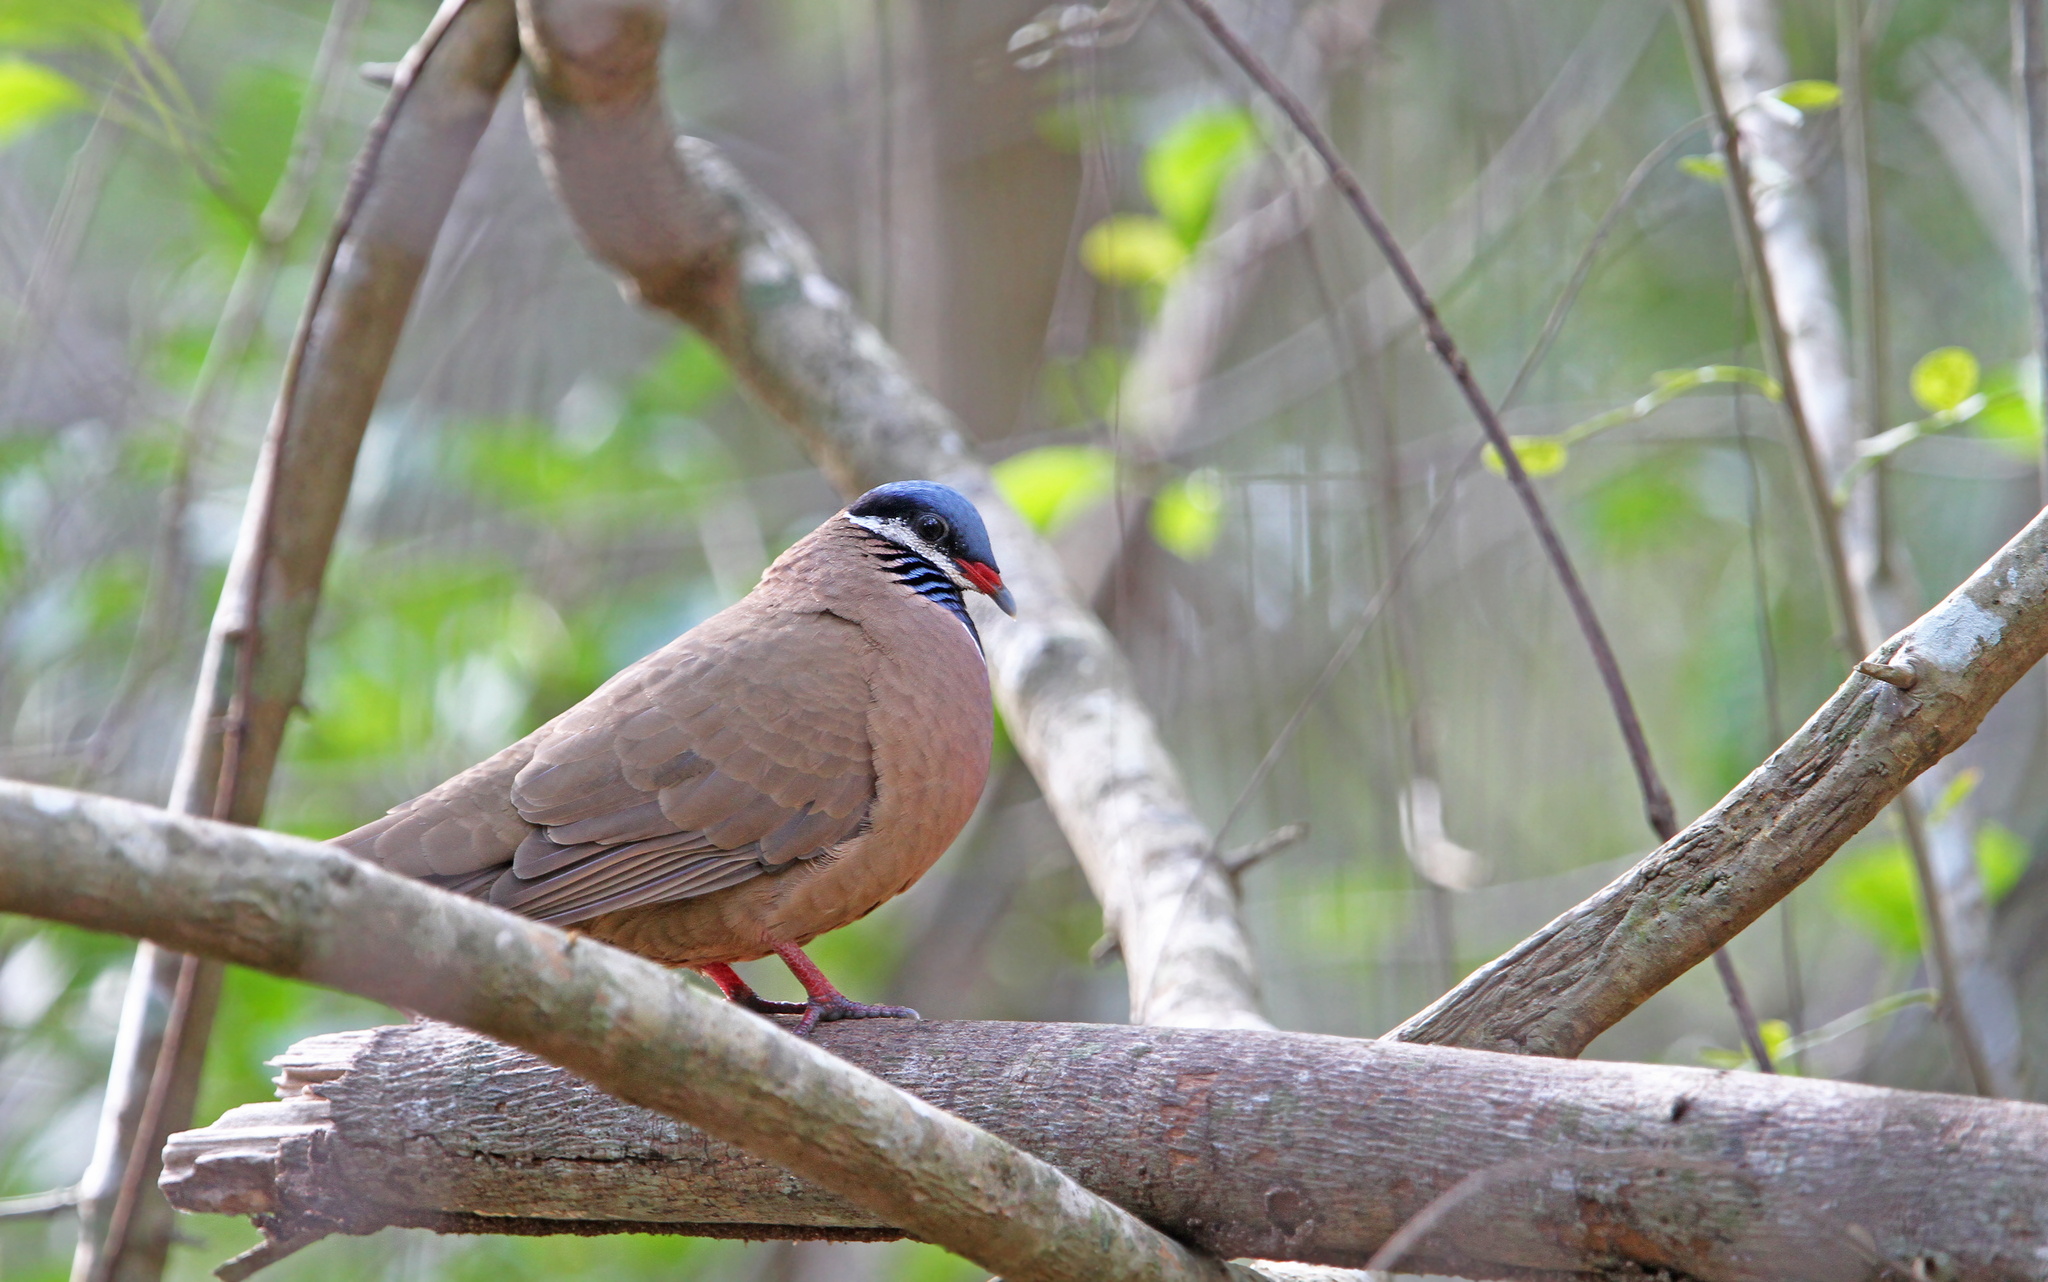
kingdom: Animalia
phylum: Chordata
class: Aves
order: Columbiformes
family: Columbidae
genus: Starnoenas
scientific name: Starnoenas cyanocephala
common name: Blue-headed quail-dove
